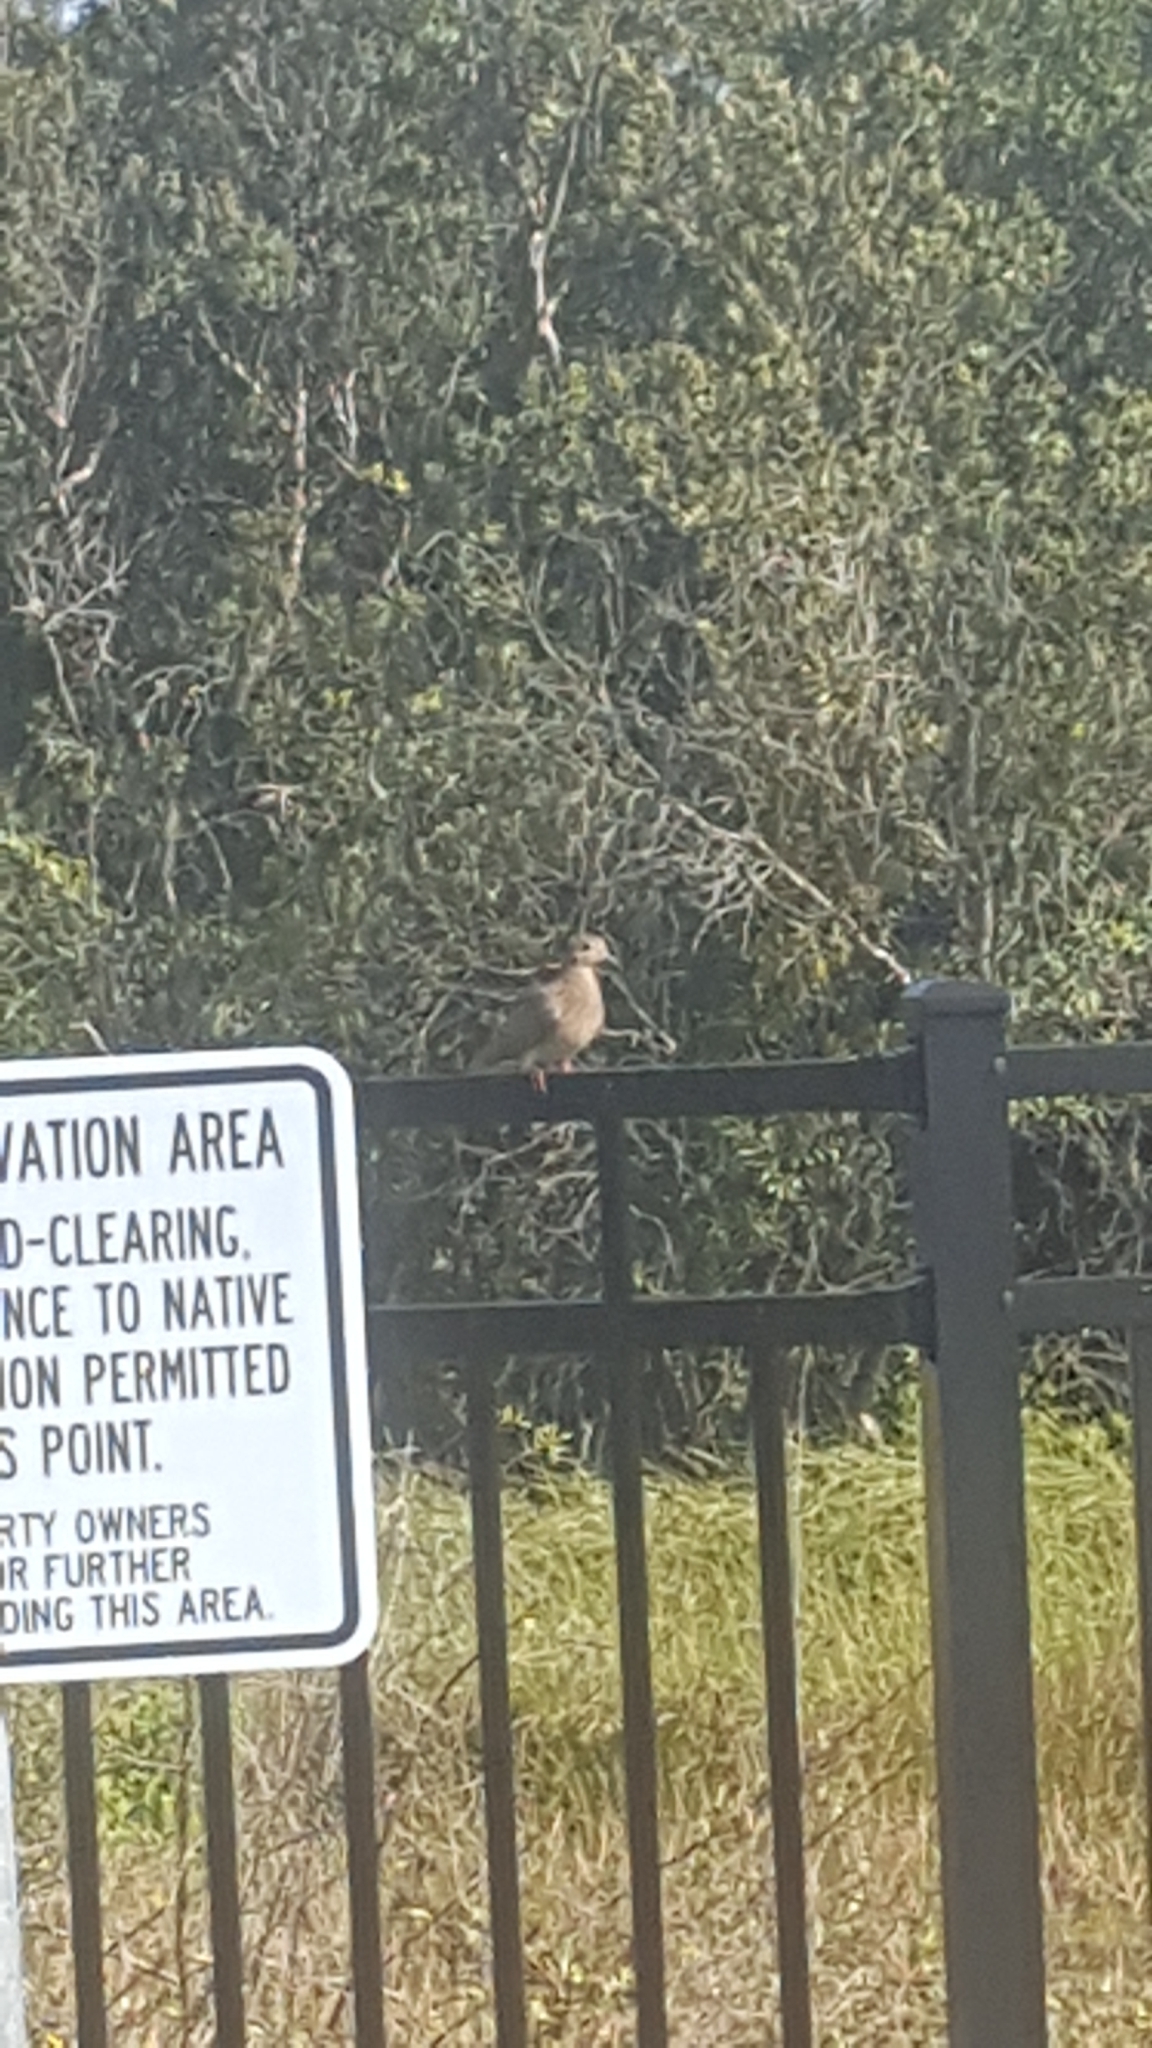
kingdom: Animalia
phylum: Chordata
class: Aves
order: Columbiformes
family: Columbidae
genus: Zenaida
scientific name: Zenaida macroura
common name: Mourning dove
